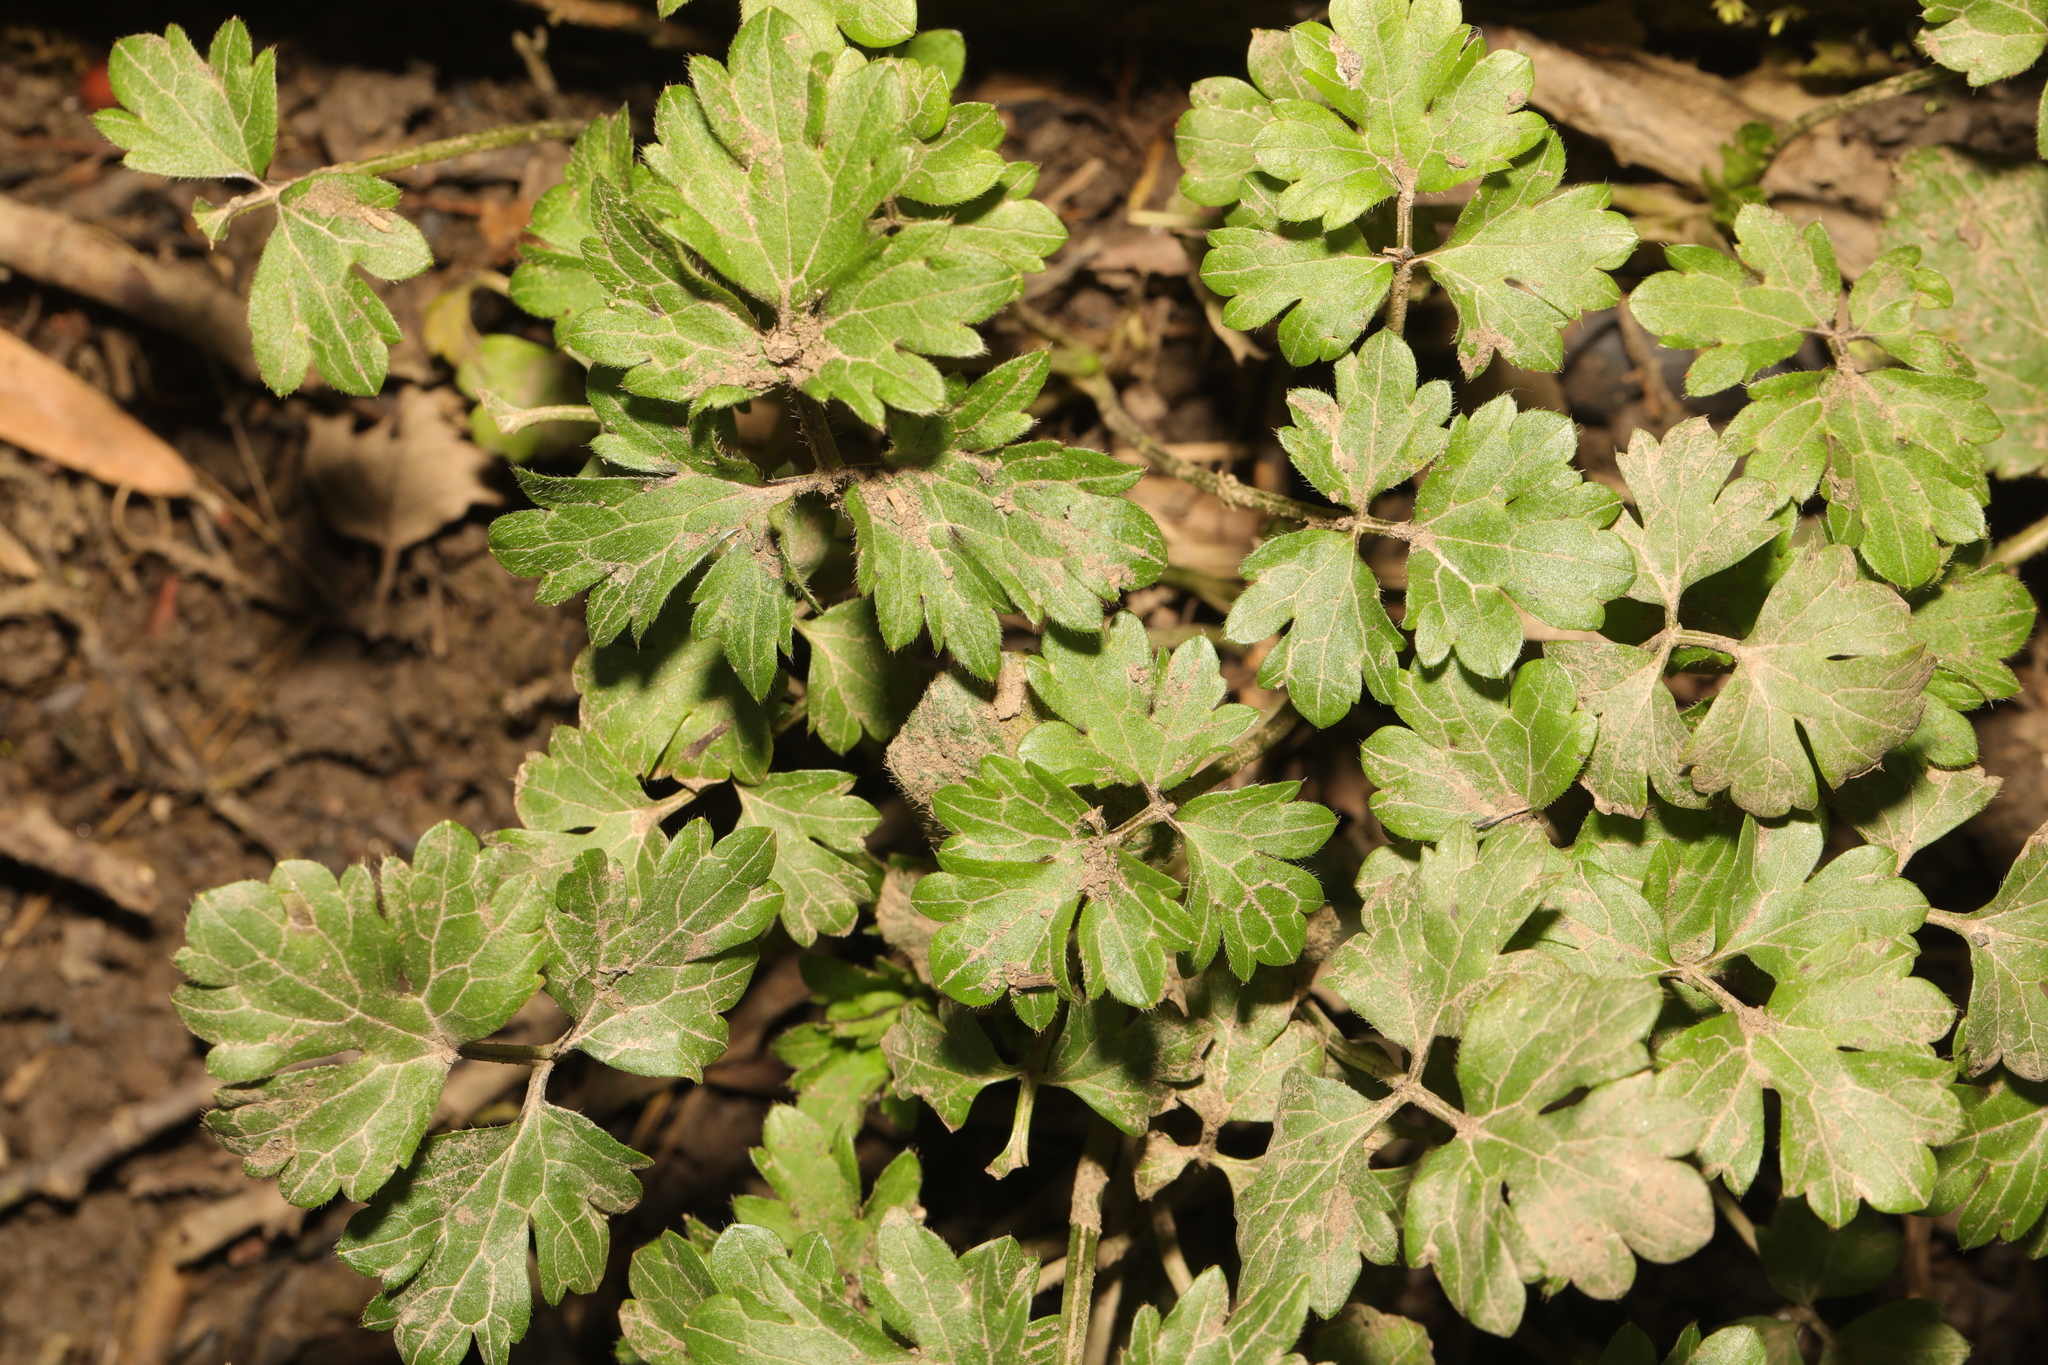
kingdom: Plantae
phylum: Tracheophyta
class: Magnoliopsida
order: Ranunculales
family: Ranunculaceae
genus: Ranunculus
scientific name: Ranunculus repens
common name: Creeping buttercup
